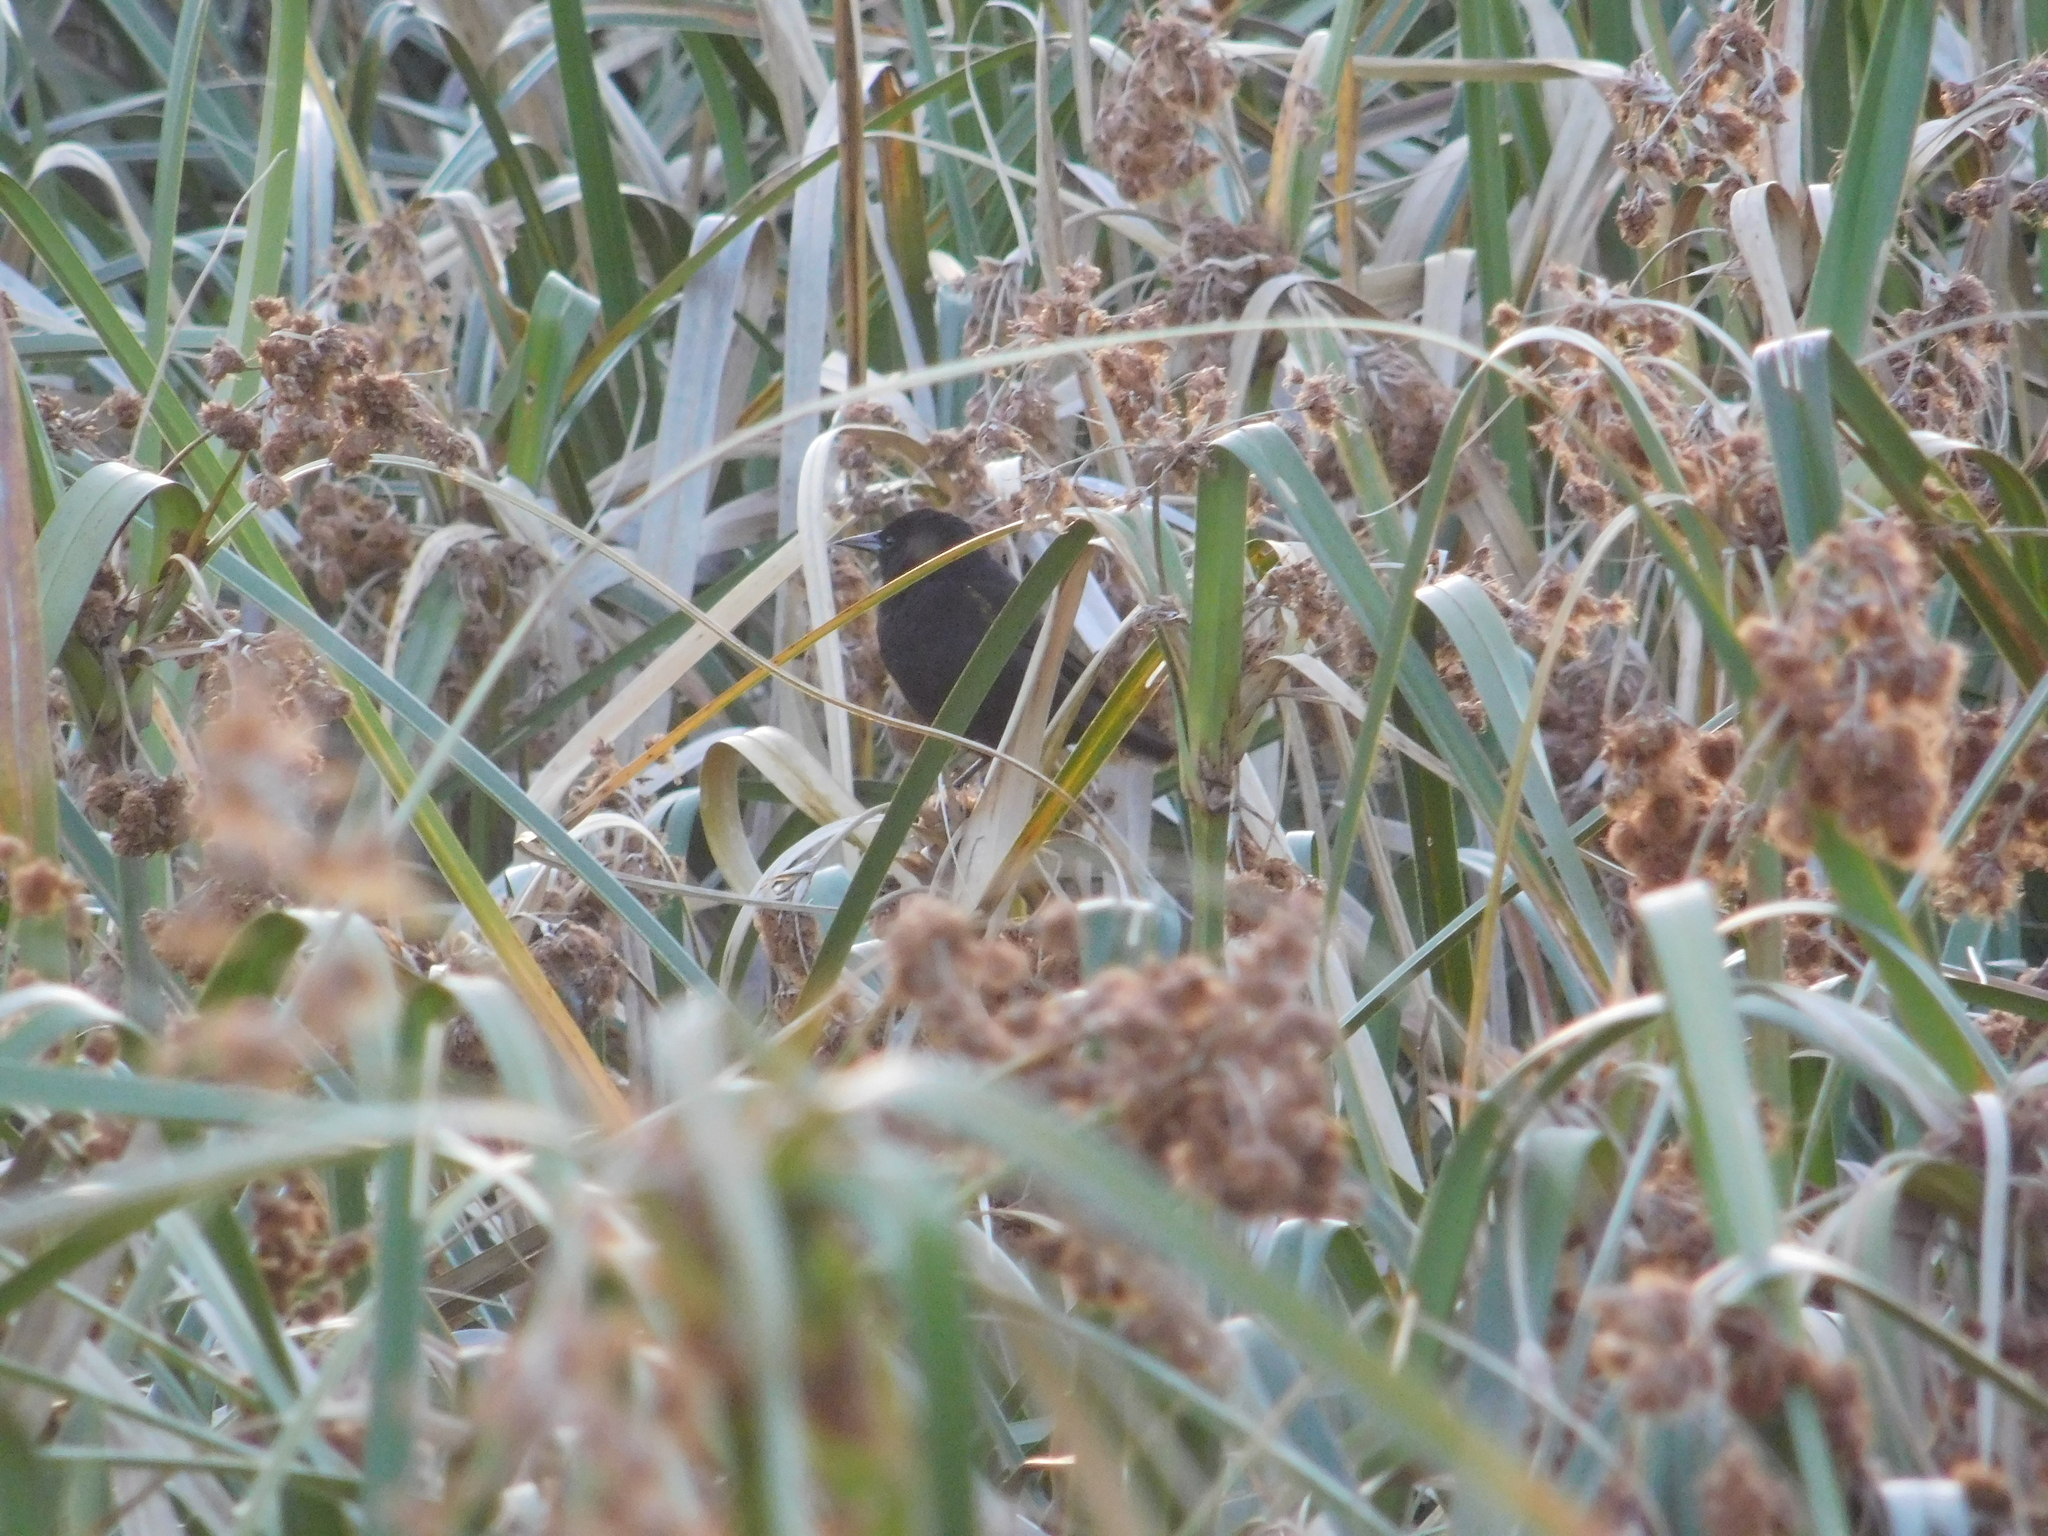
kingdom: Animalia
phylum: Chordata
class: Aves
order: Passeriformes
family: Icteridae
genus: Agelasticus
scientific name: Agelasticus thilius
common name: Yellow-winged blackbird
